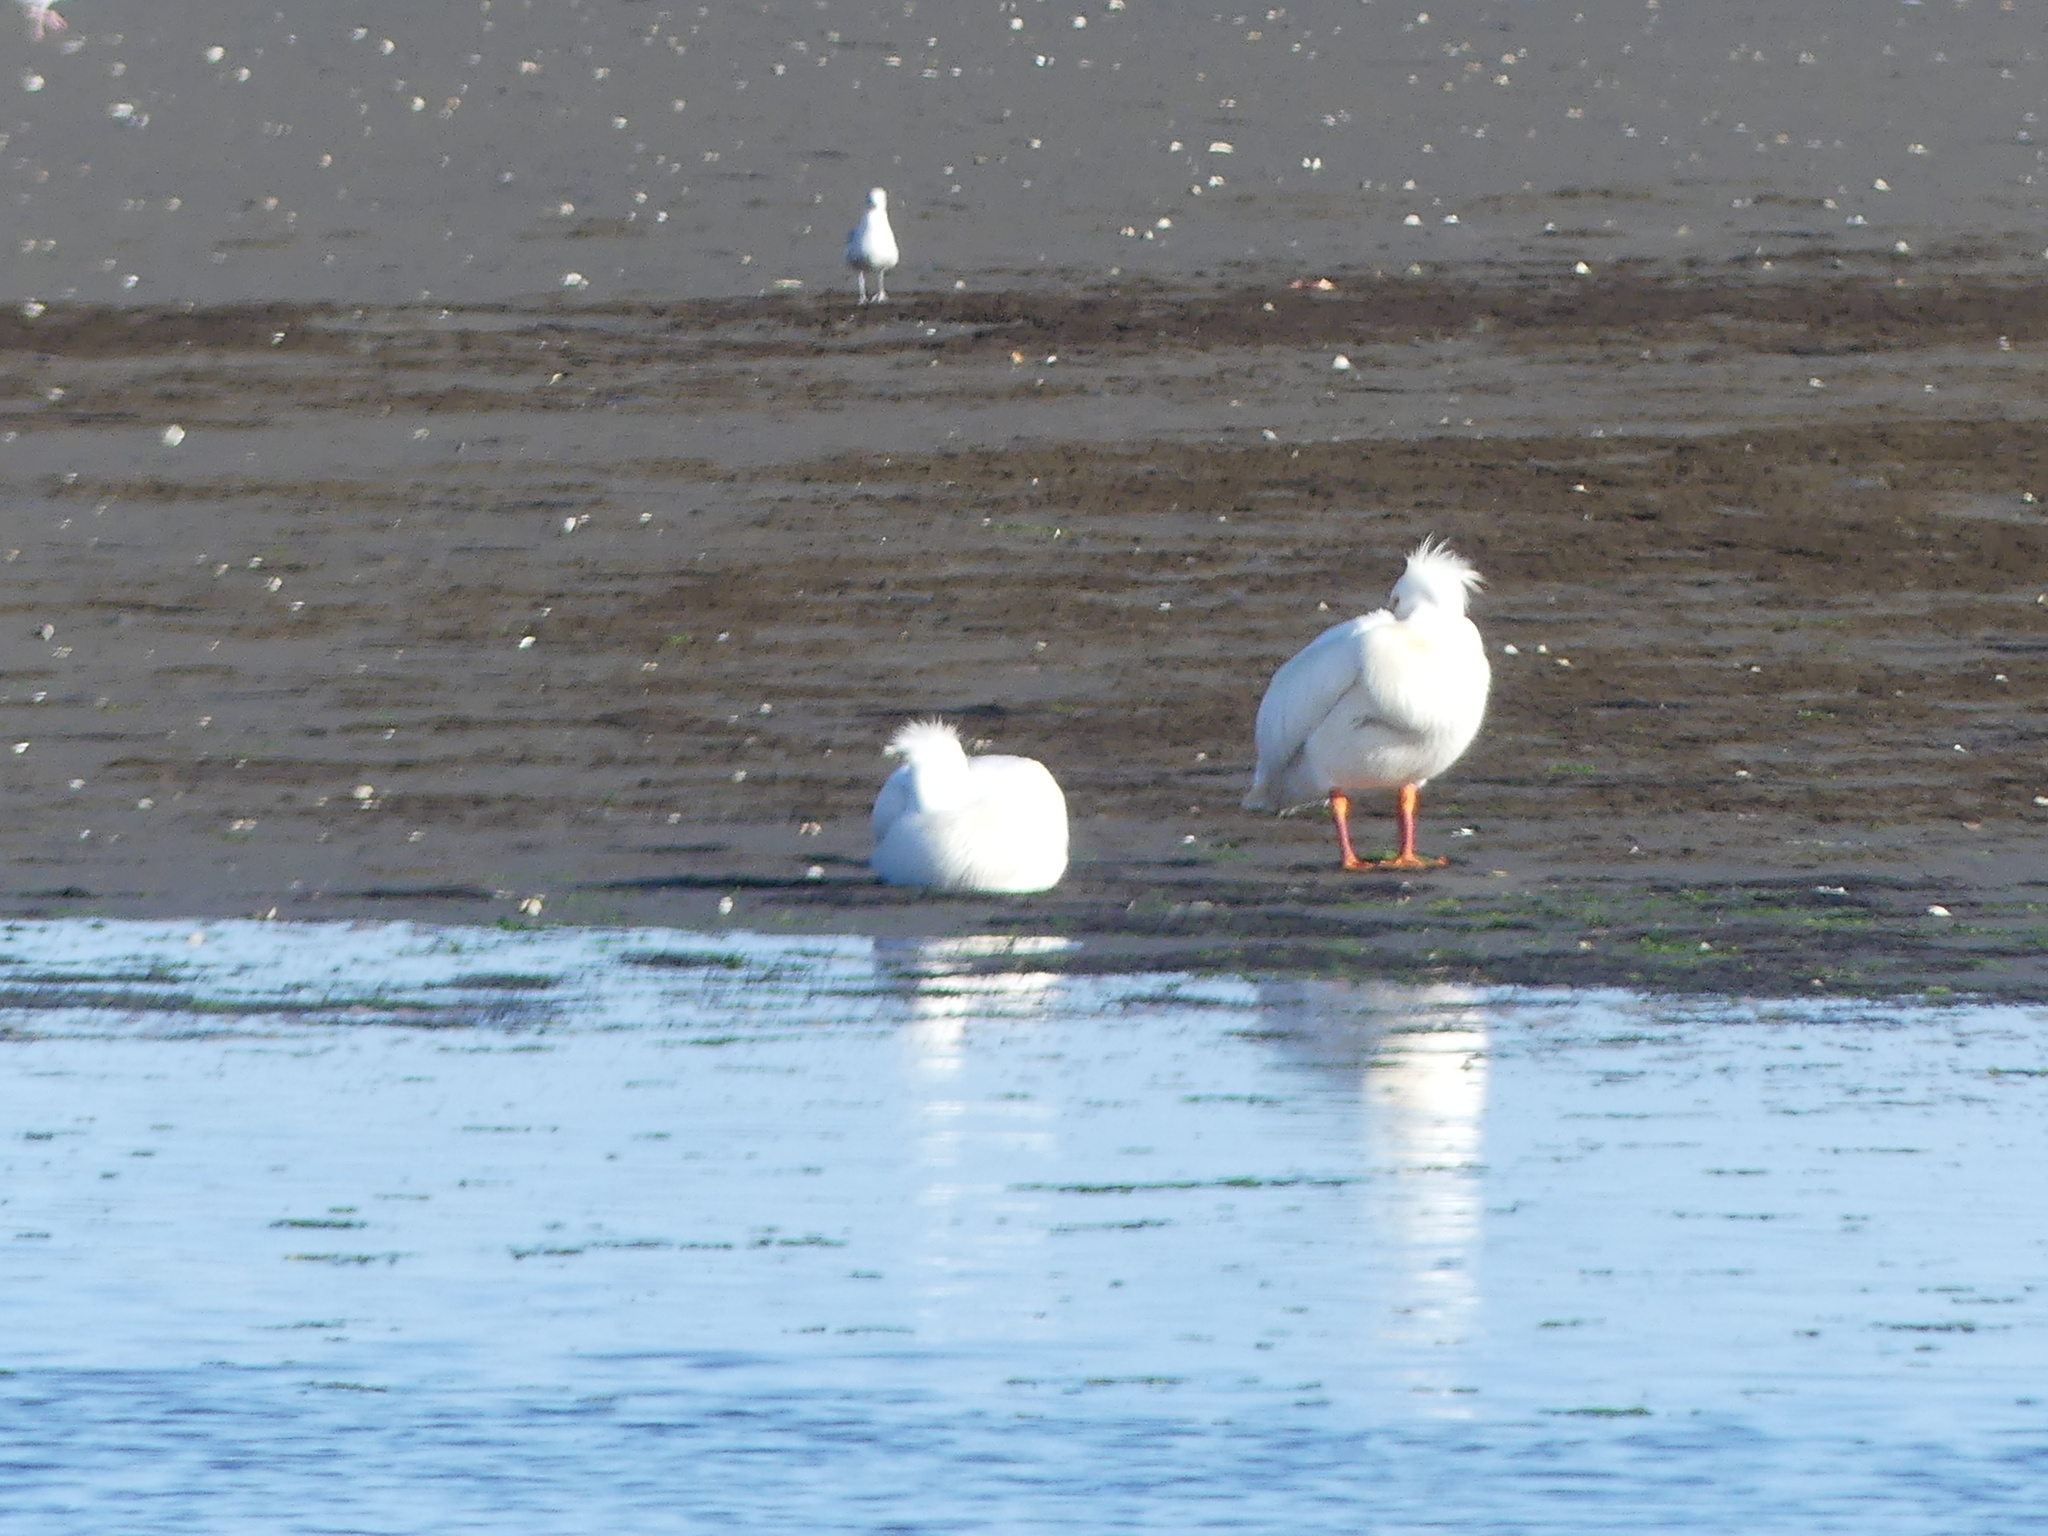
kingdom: Animalia
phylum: Chordata
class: Aves
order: Pelecaniformes
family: Pelecanidae
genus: Pelecanus
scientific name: Pelecanus erythrorhynchos
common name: American white pelican
